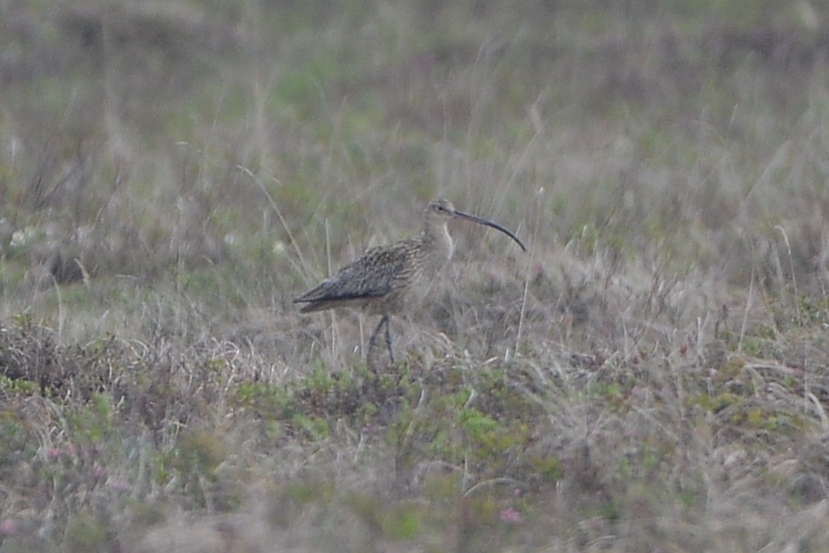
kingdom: Animalia
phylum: Chordata
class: Aves
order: Charadriiformes
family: Scolopacidae
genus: Numenius
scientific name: Numenius madagascariensis
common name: Far eastern curlew
